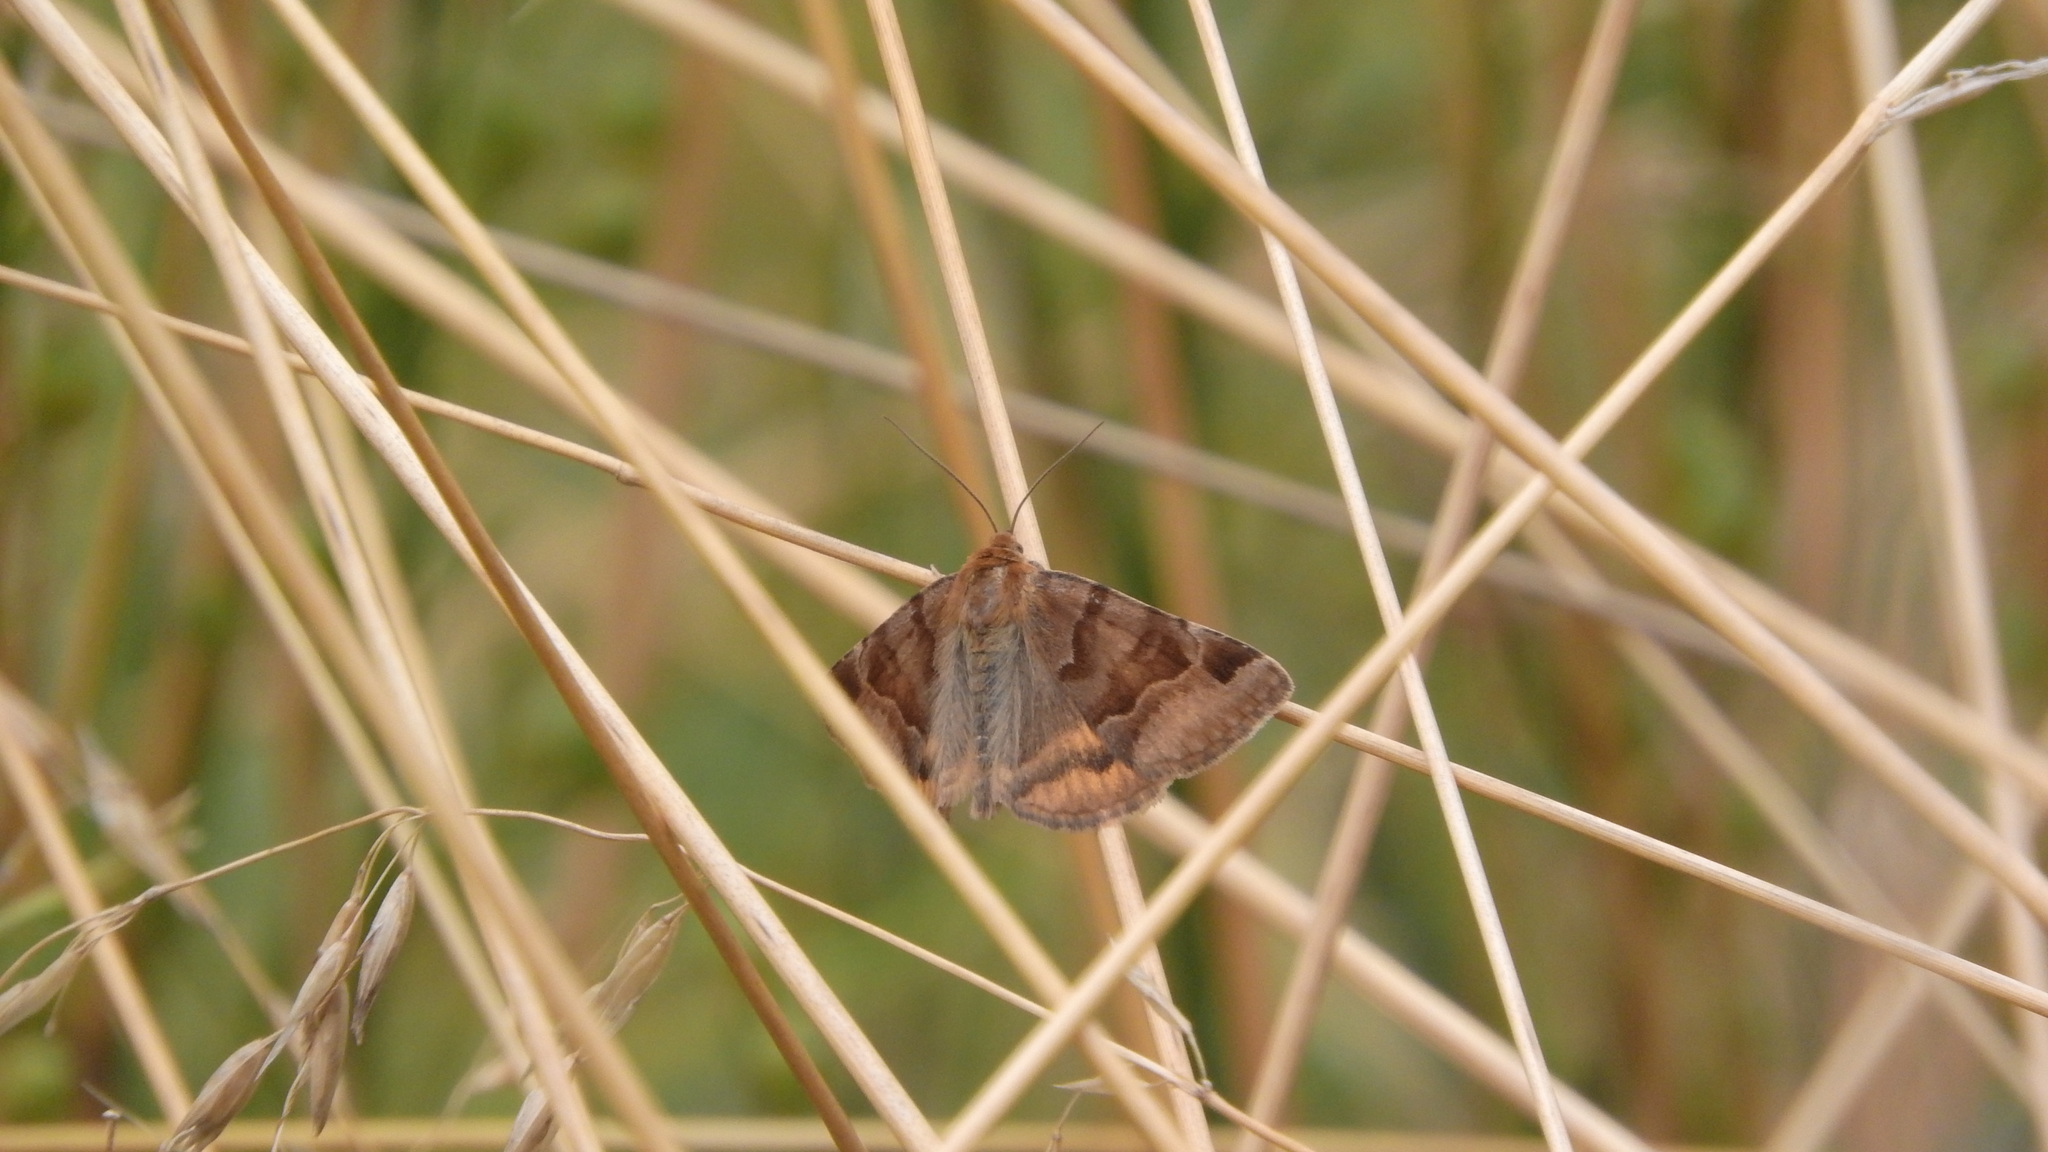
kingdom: Animalia
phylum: Arthropoda
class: Insecta
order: Lepidoptera
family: Erebidae
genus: Euclidia
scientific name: Euclidia glyphica
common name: Burnet companion
